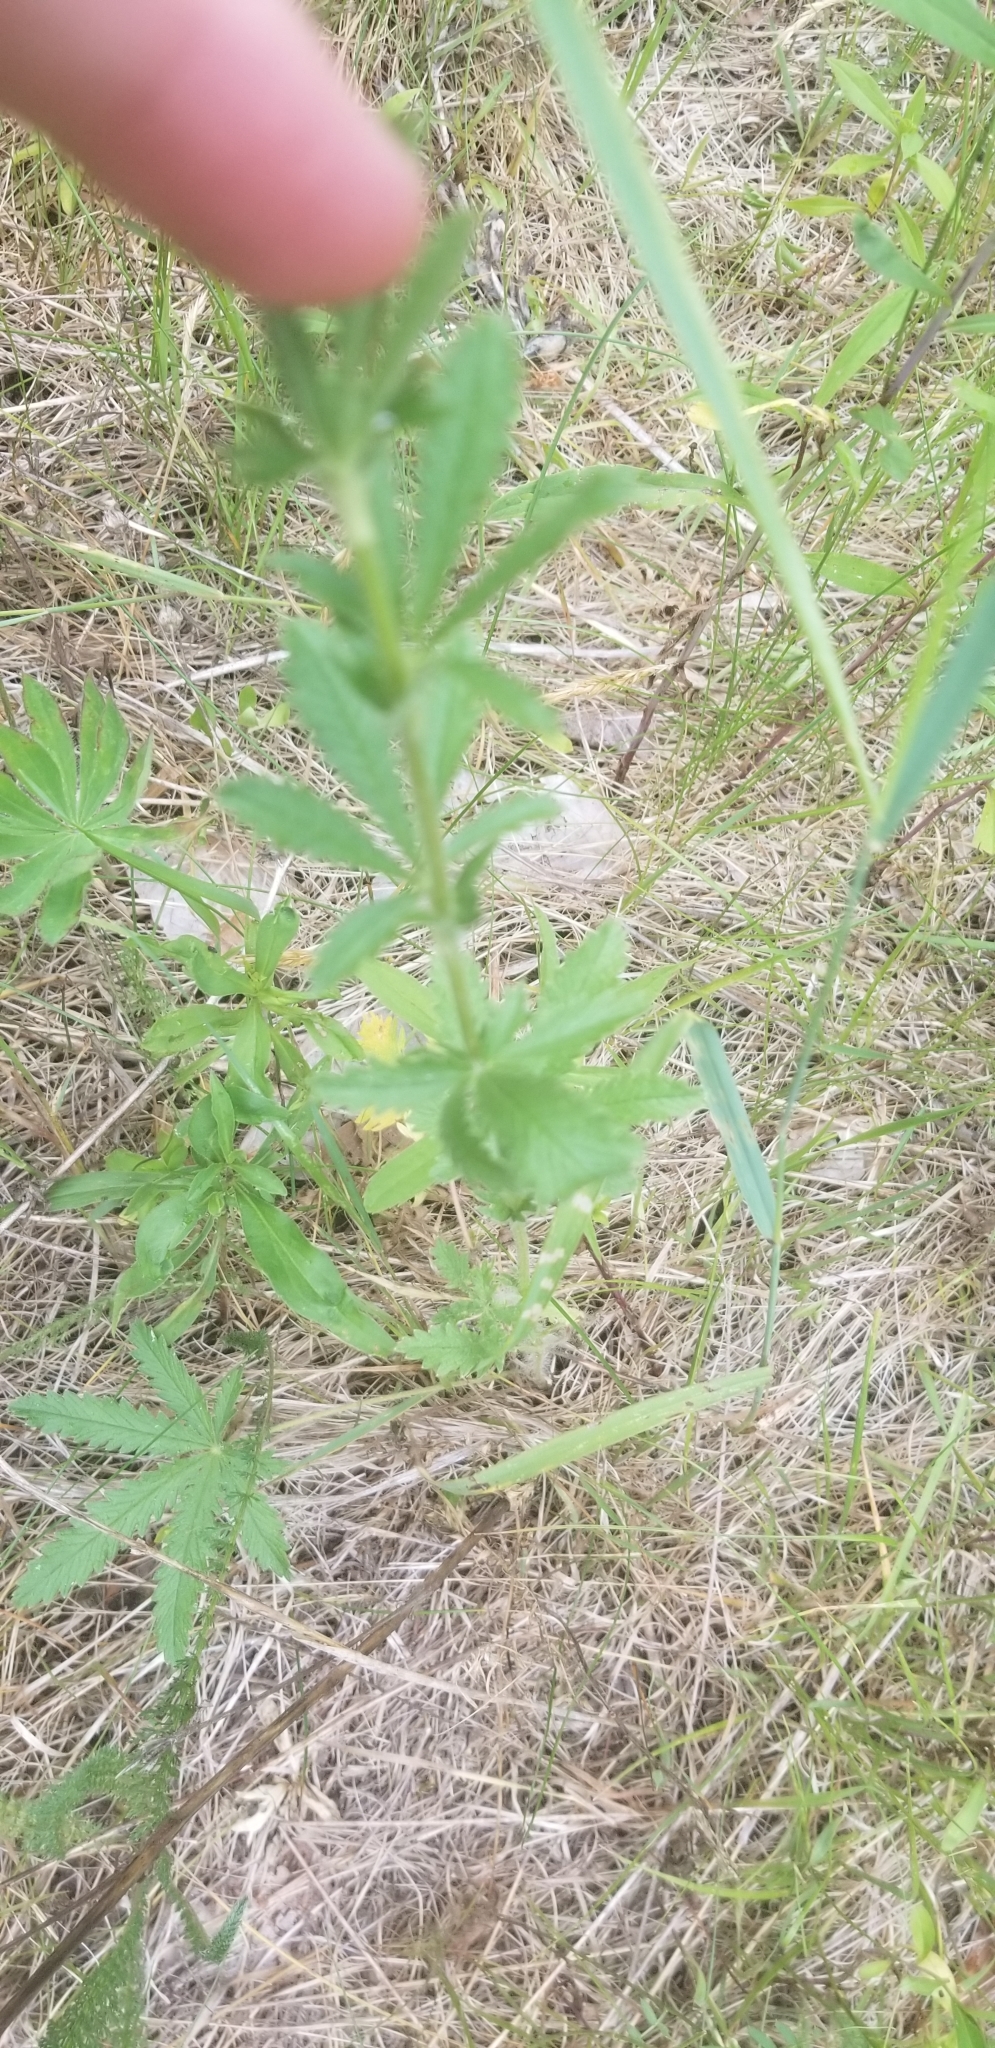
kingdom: Plantae
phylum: Tracheophyta
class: Magnoliopsida
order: Rosales
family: Rosaceae
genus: Potentilla
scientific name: Potentilla recta
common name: Sulphur cinquefoil
